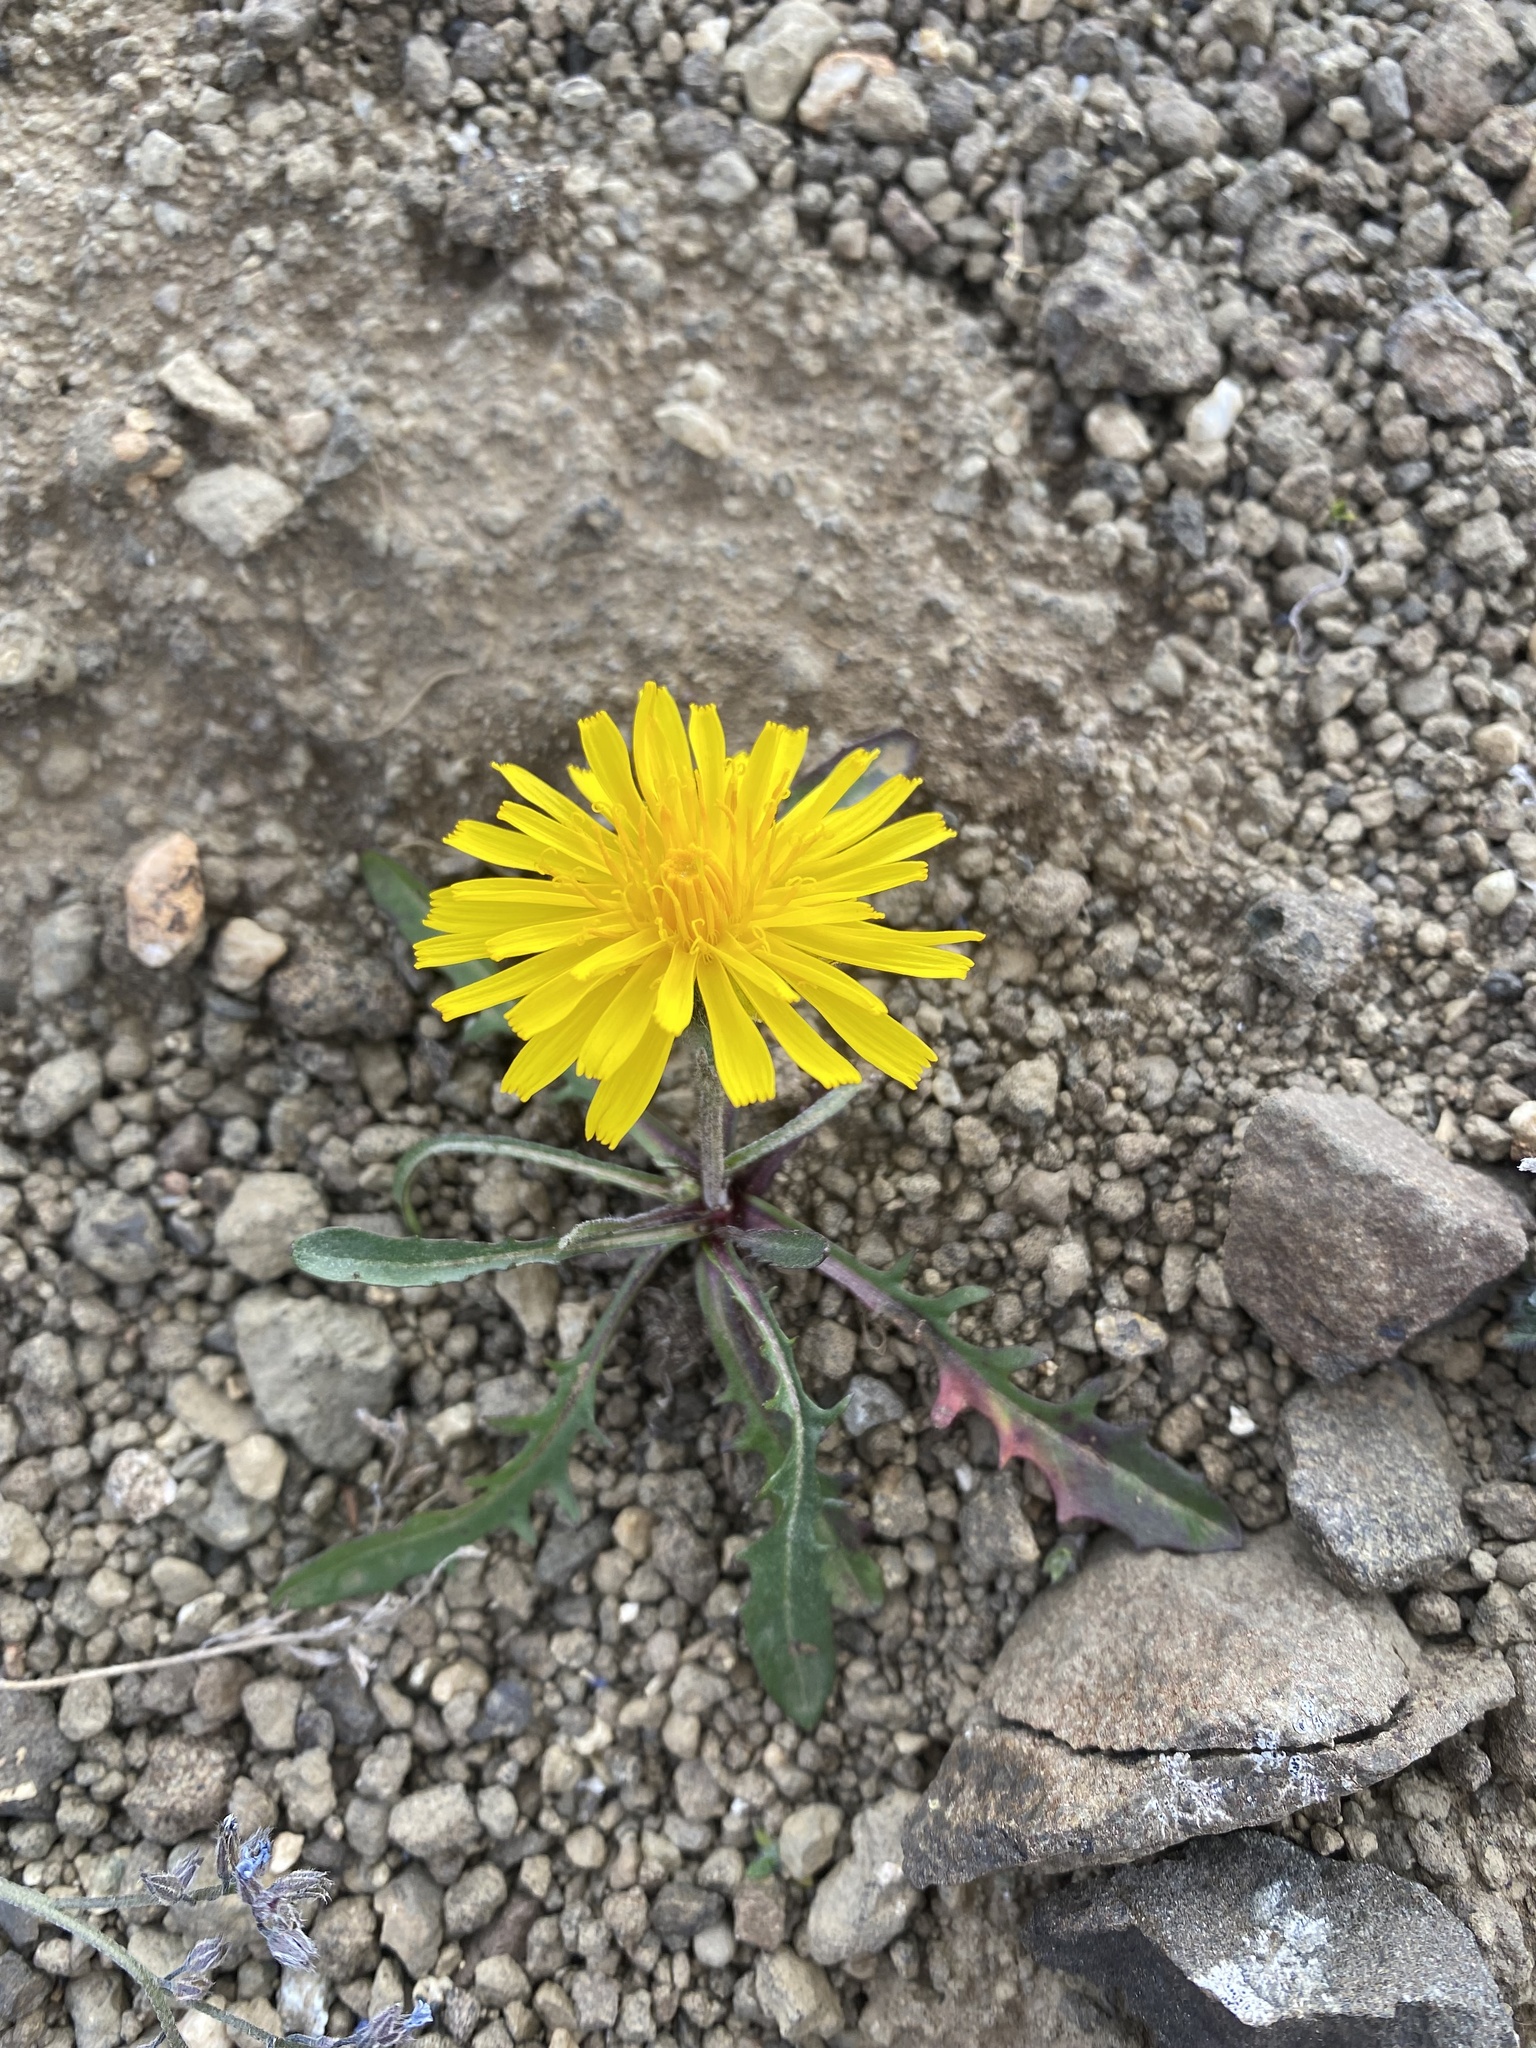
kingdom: Plantae
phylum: Tracheophyta
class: Magnoliopsida
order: Asterales
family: Asteraceae
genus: Crepis
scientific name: Crepis chrysantha
